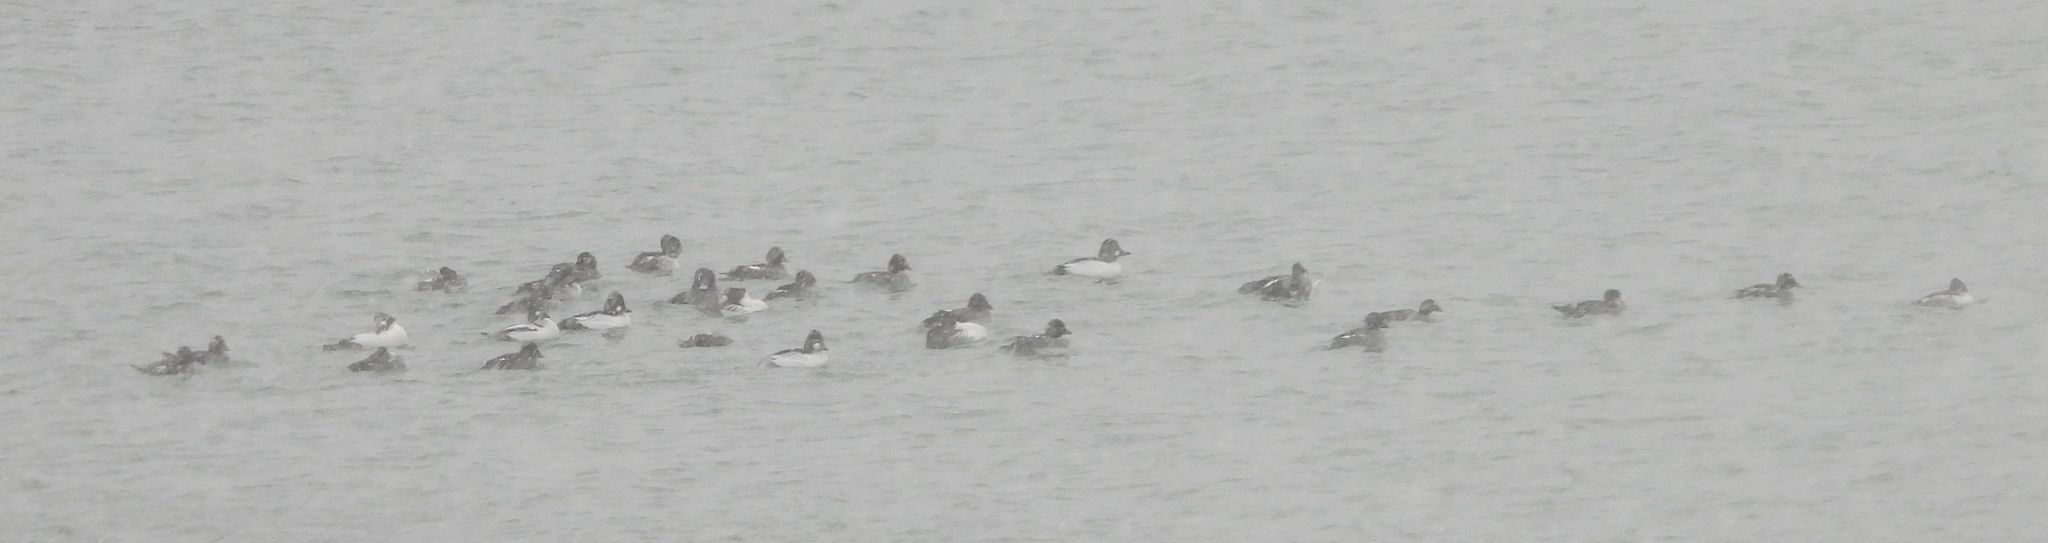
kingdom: Animalia
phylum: Chordata
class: Aves
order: Anseriformes
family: Anatidae
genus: Bucephala
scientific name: Bucephala clangula
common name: Common goldeneye
